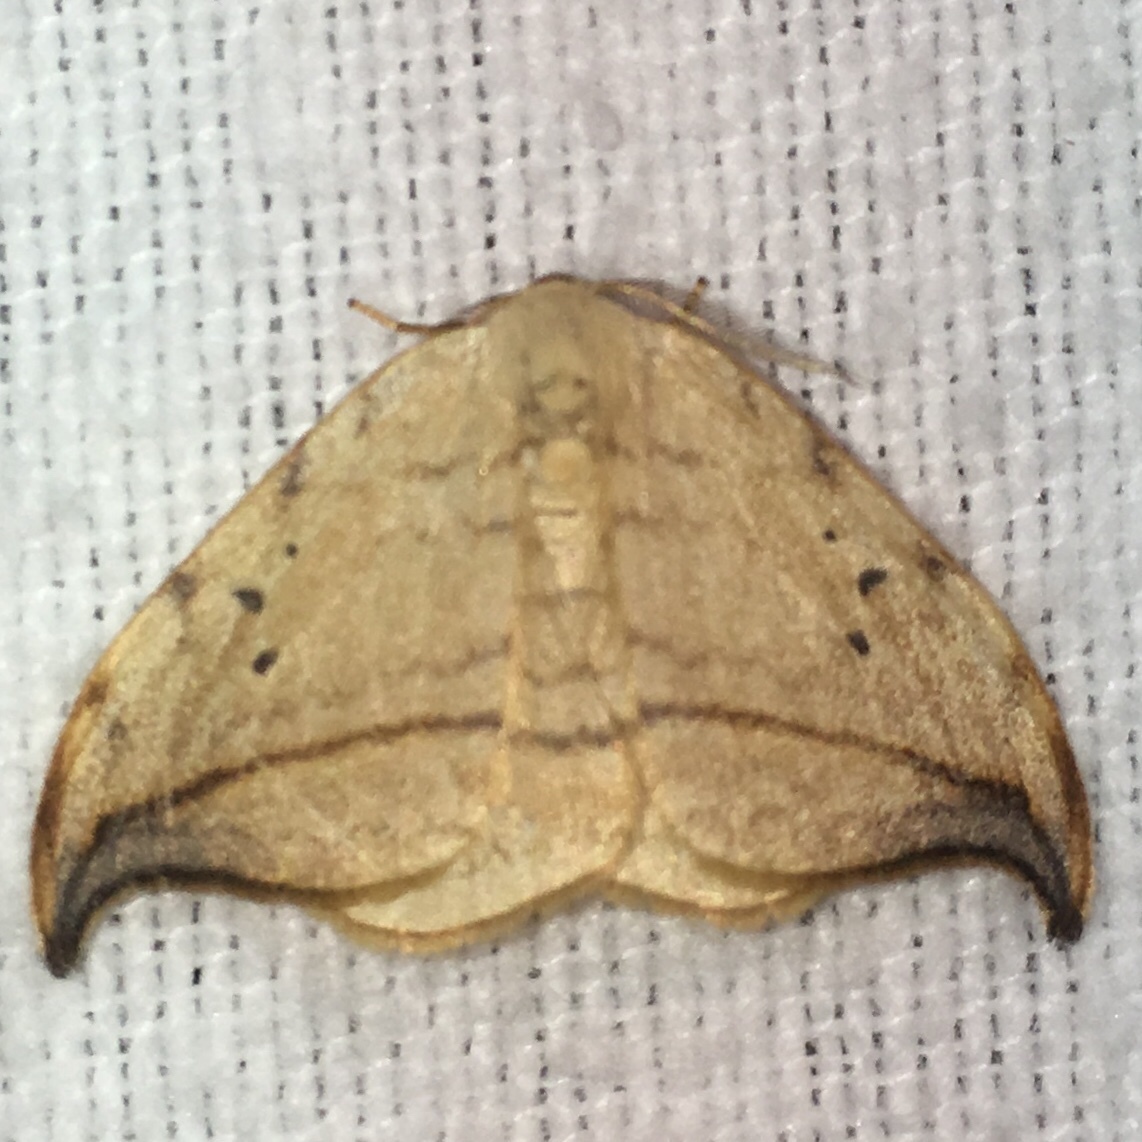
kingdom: Animalia
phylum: Arthropoda
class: Insecta
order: Lepidoptera
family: Drepanidae
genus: Drepana
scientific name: Drepana arcuata
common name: Arched hooktip moth
